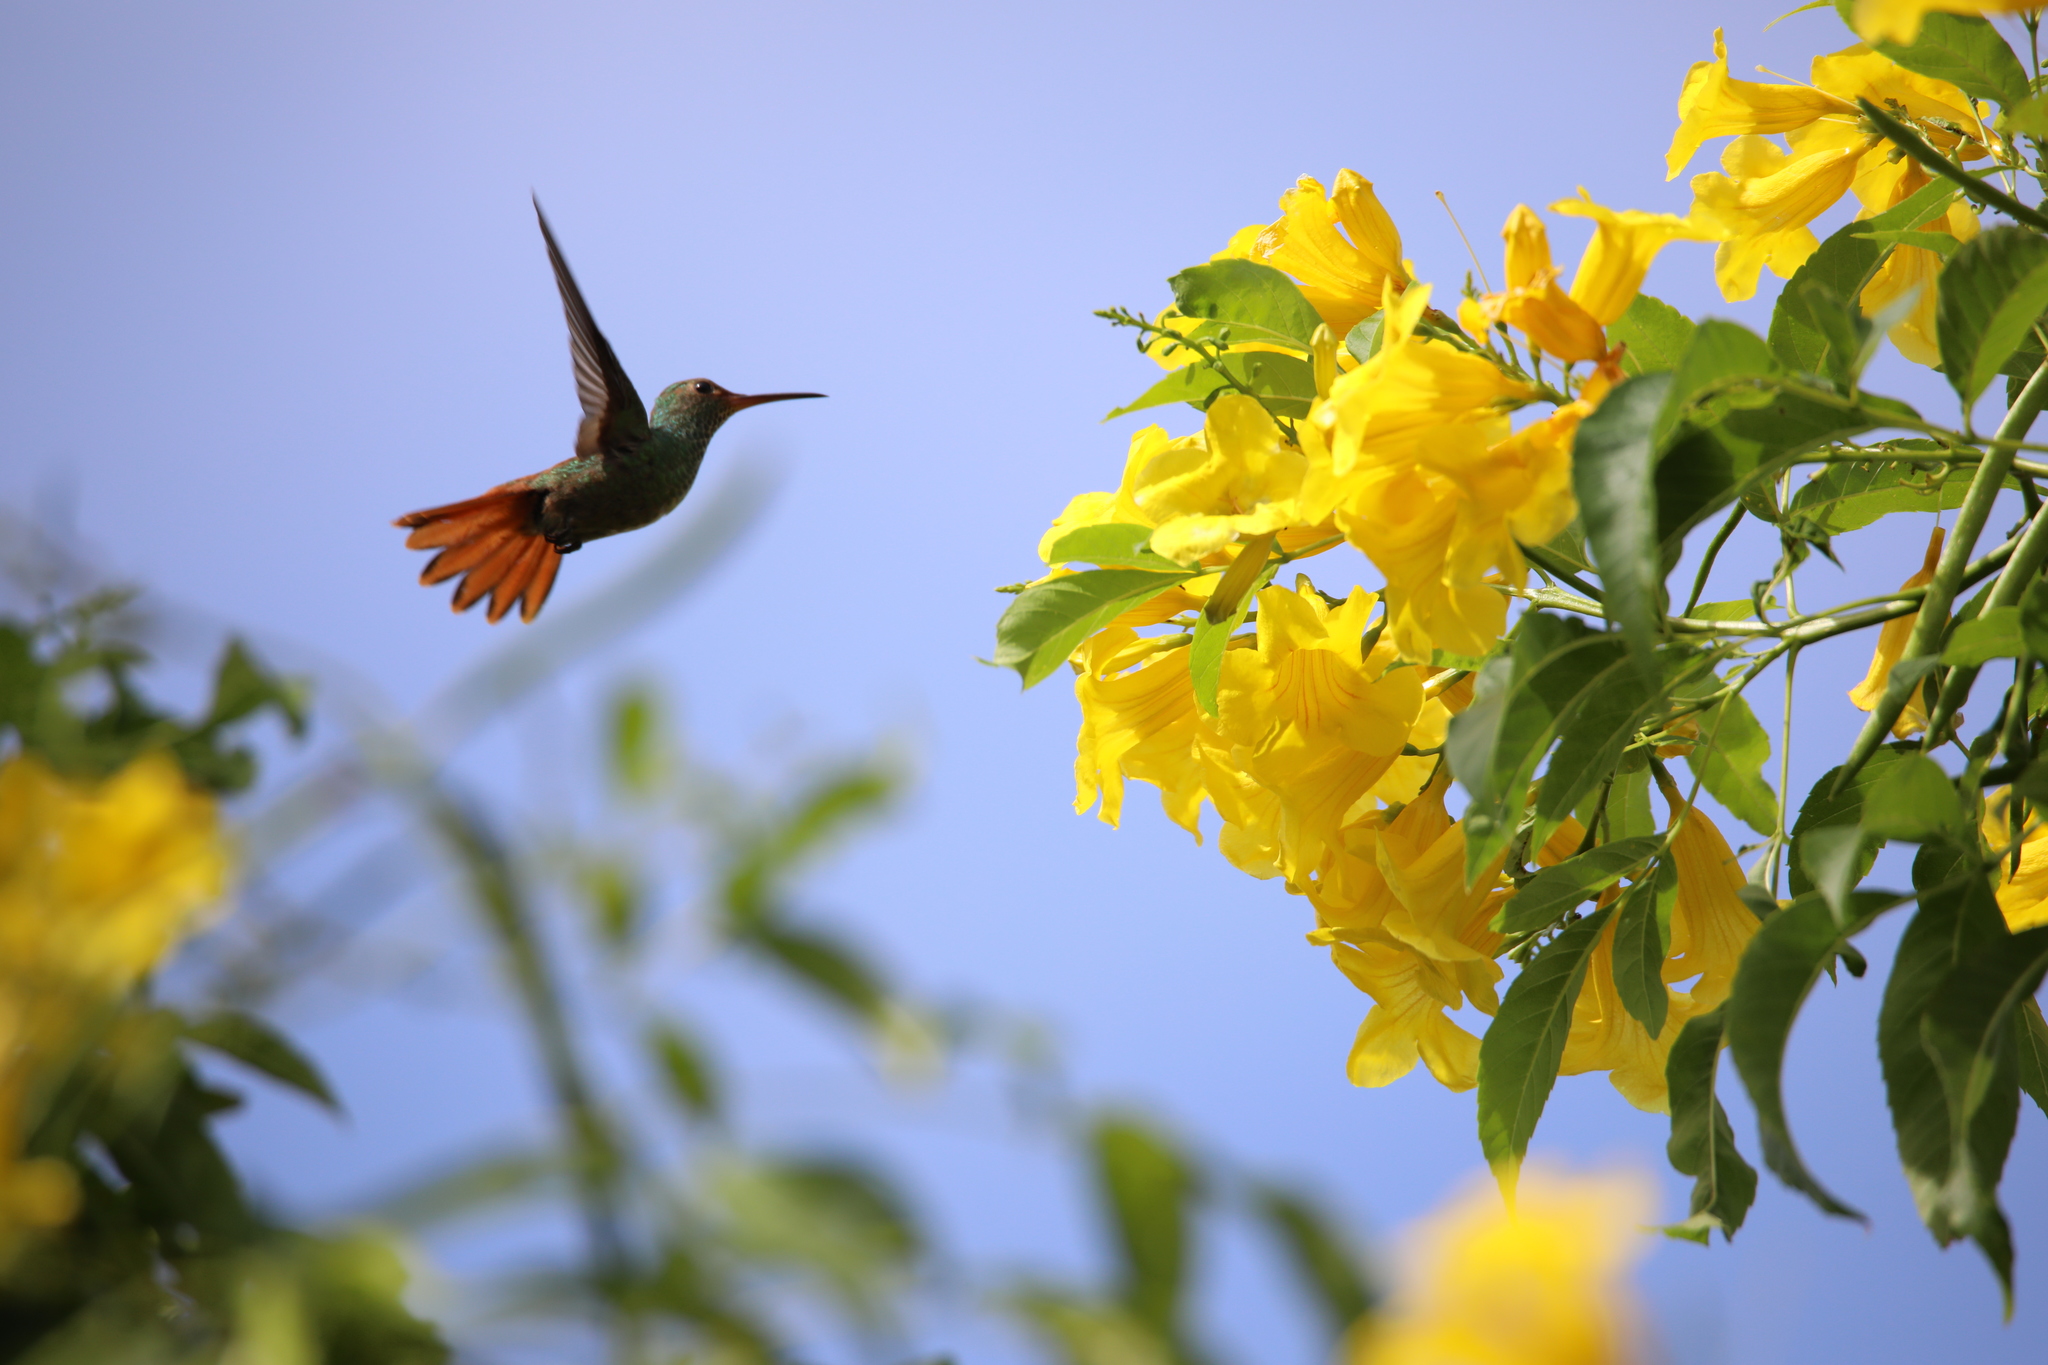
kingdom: Animalia
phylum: Chordata
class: Aves
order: Apodiformes
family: Trochilidae
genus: Amazilia
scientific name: Amazilia tzacatl
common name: Rufous-tailed hummingbird
